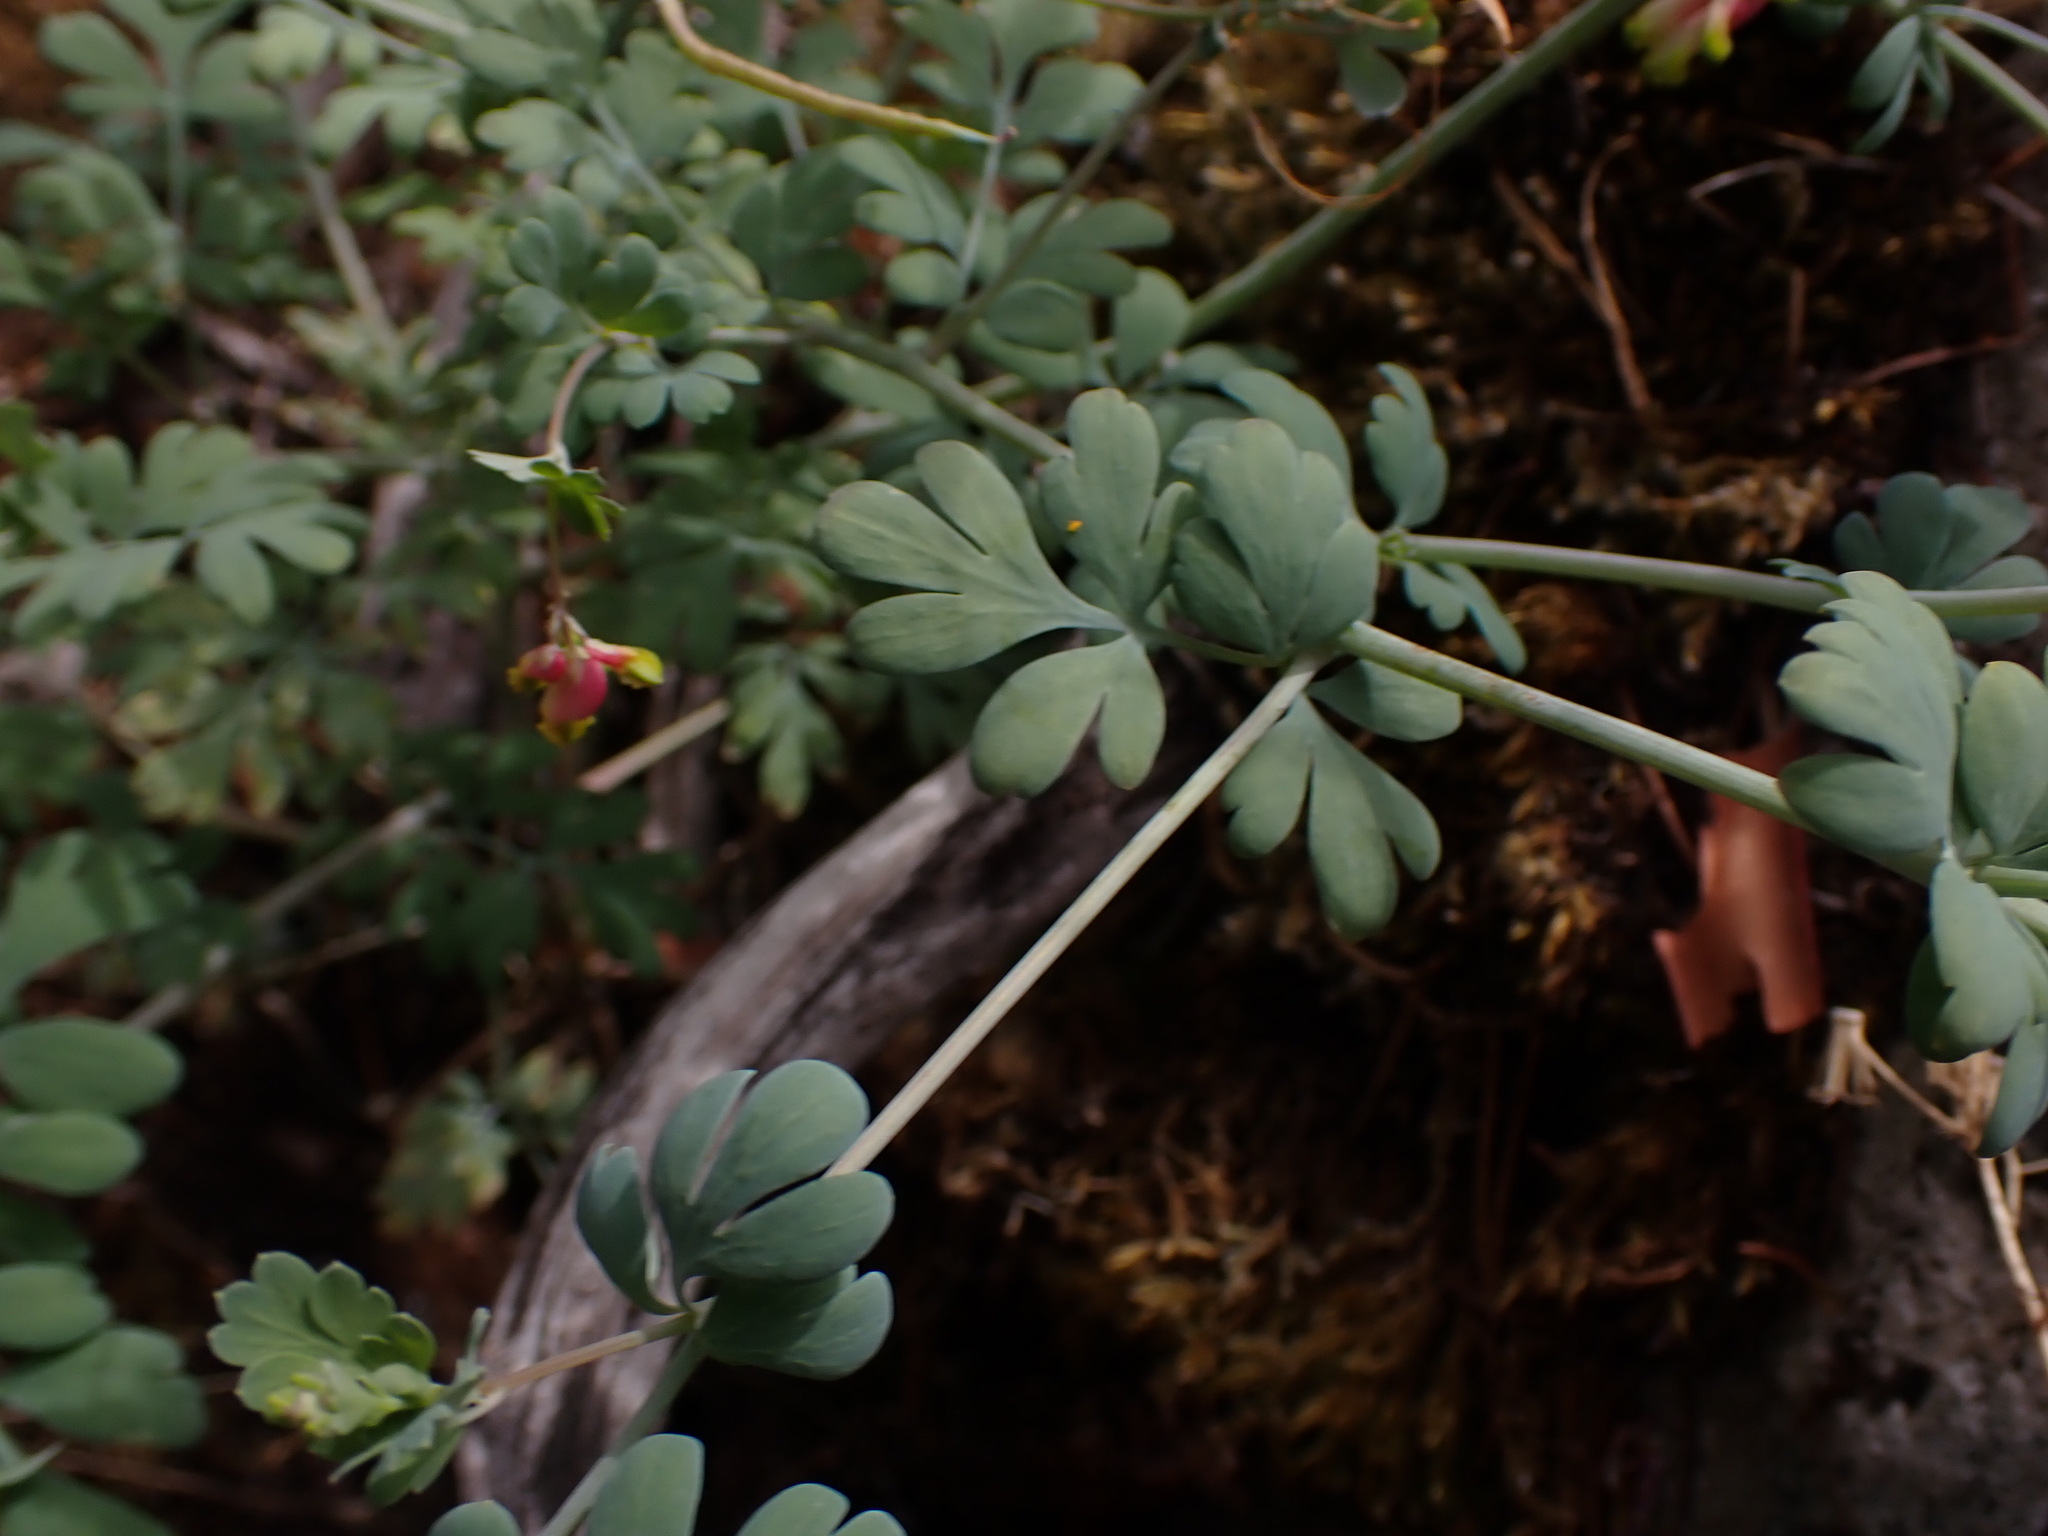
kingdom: Plantae
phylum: Tracheophyta
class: Magnoliopsida
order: Ranunculales
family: Papaveraceae
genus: Capnoides
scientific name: Capnoides sempervirens
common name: Rock harlequin
